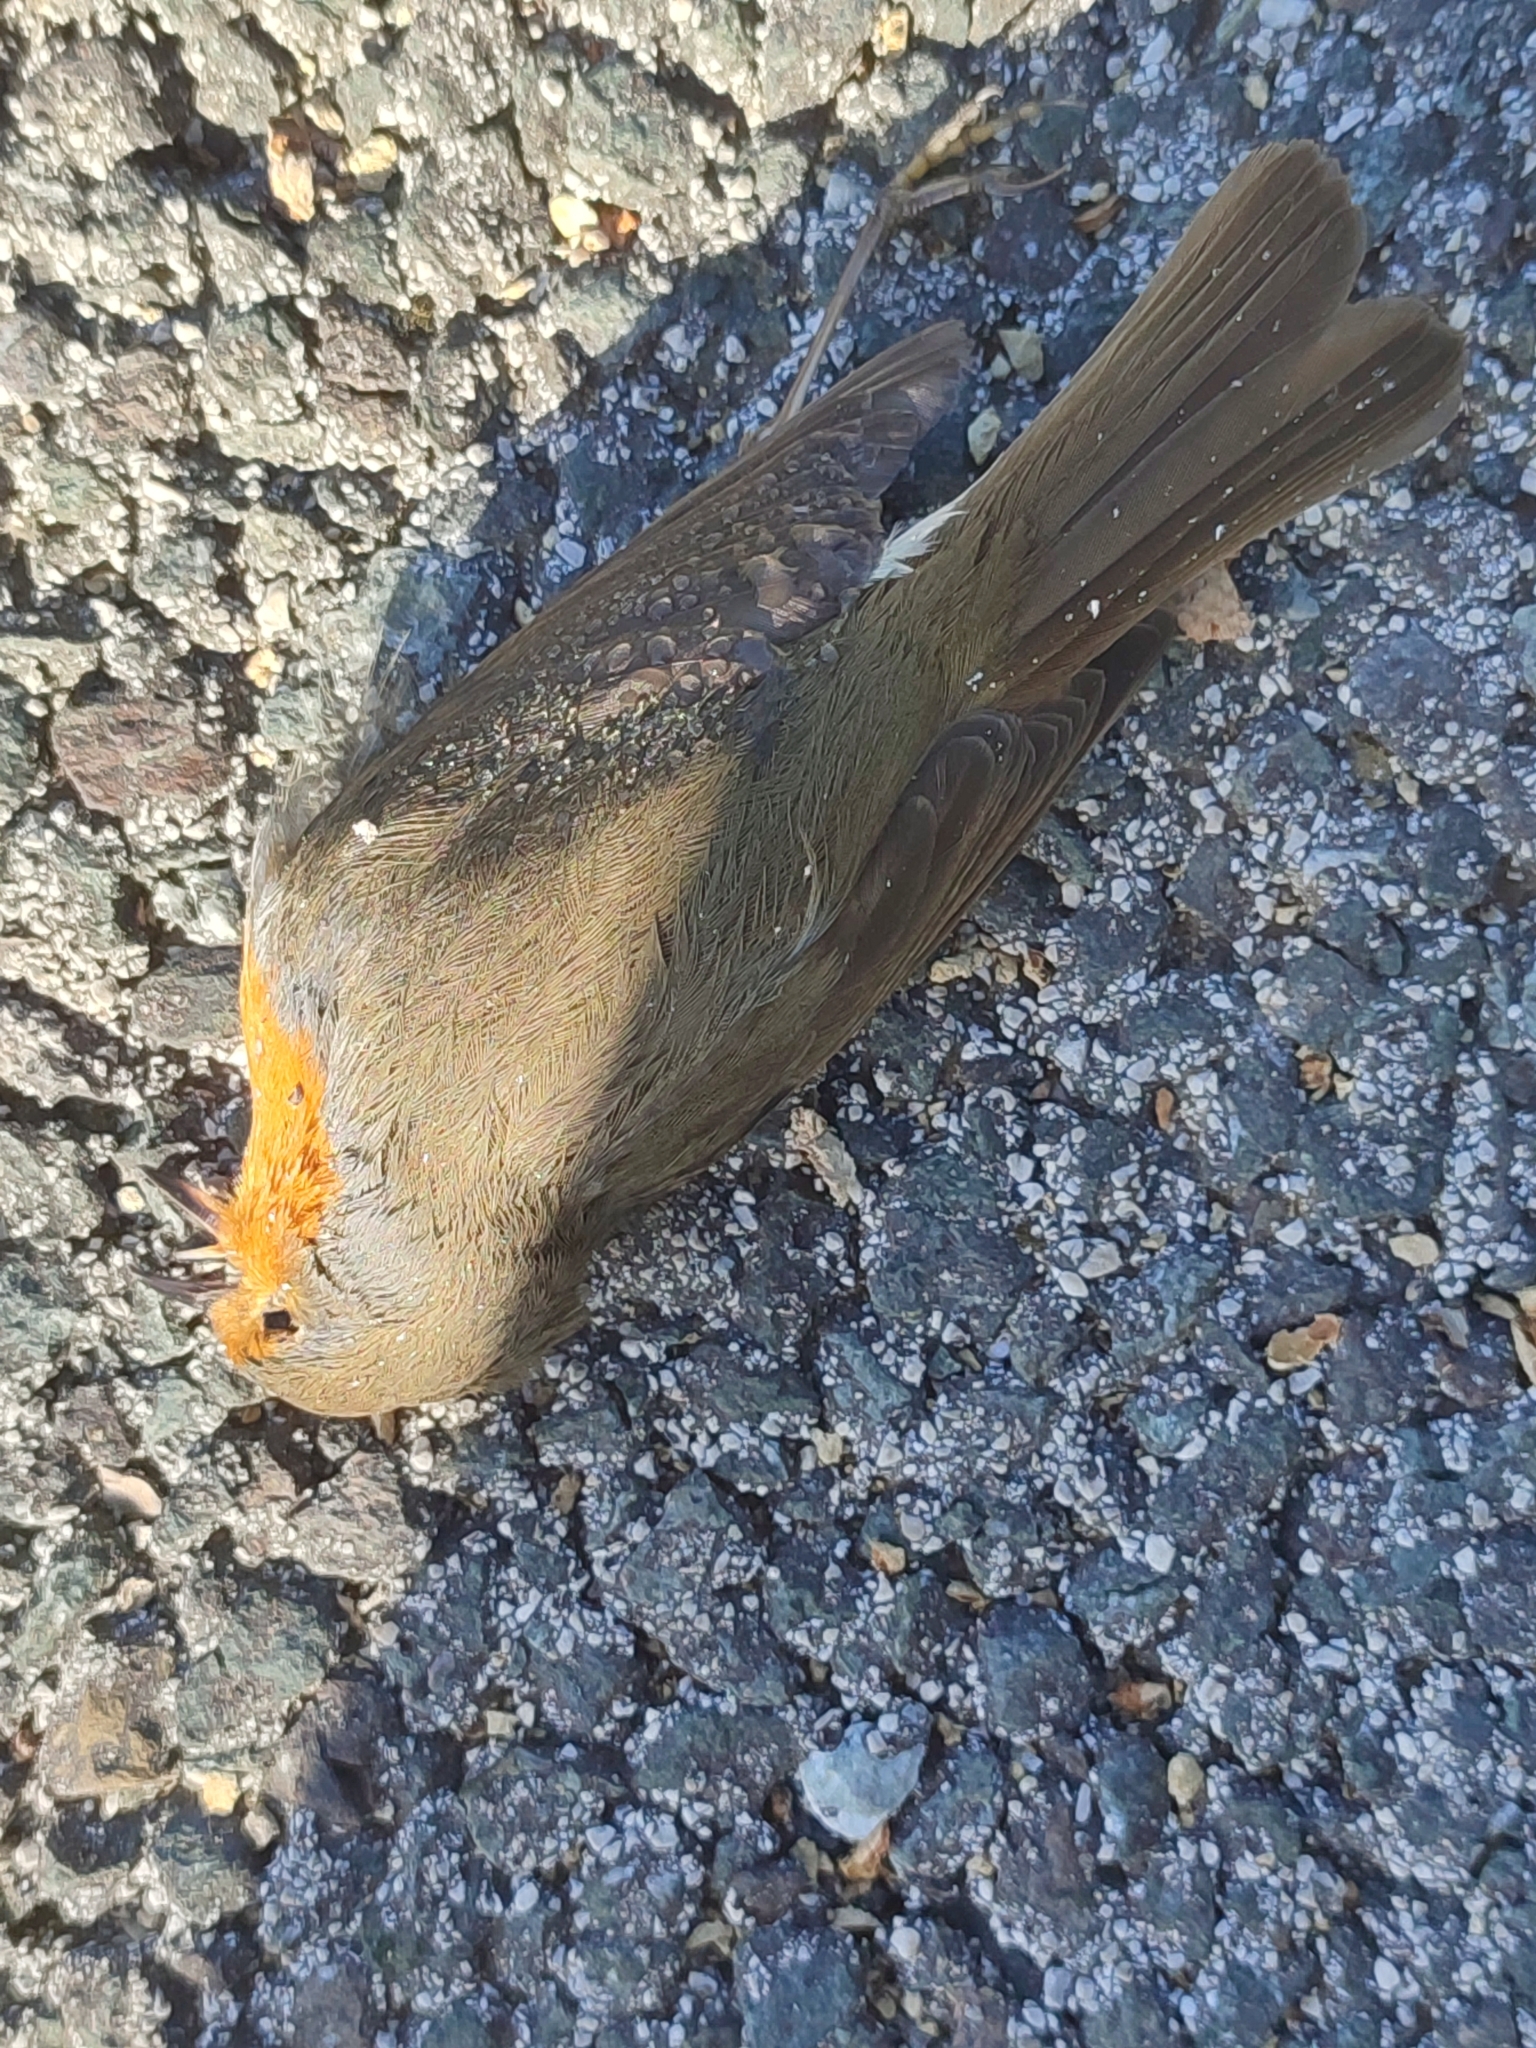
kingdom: Animalia
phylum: Chordata
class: Aves
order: Passeriformes
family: Muscicapidae
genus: Erithacus
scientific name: Erithacus rubecula
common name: European robin
